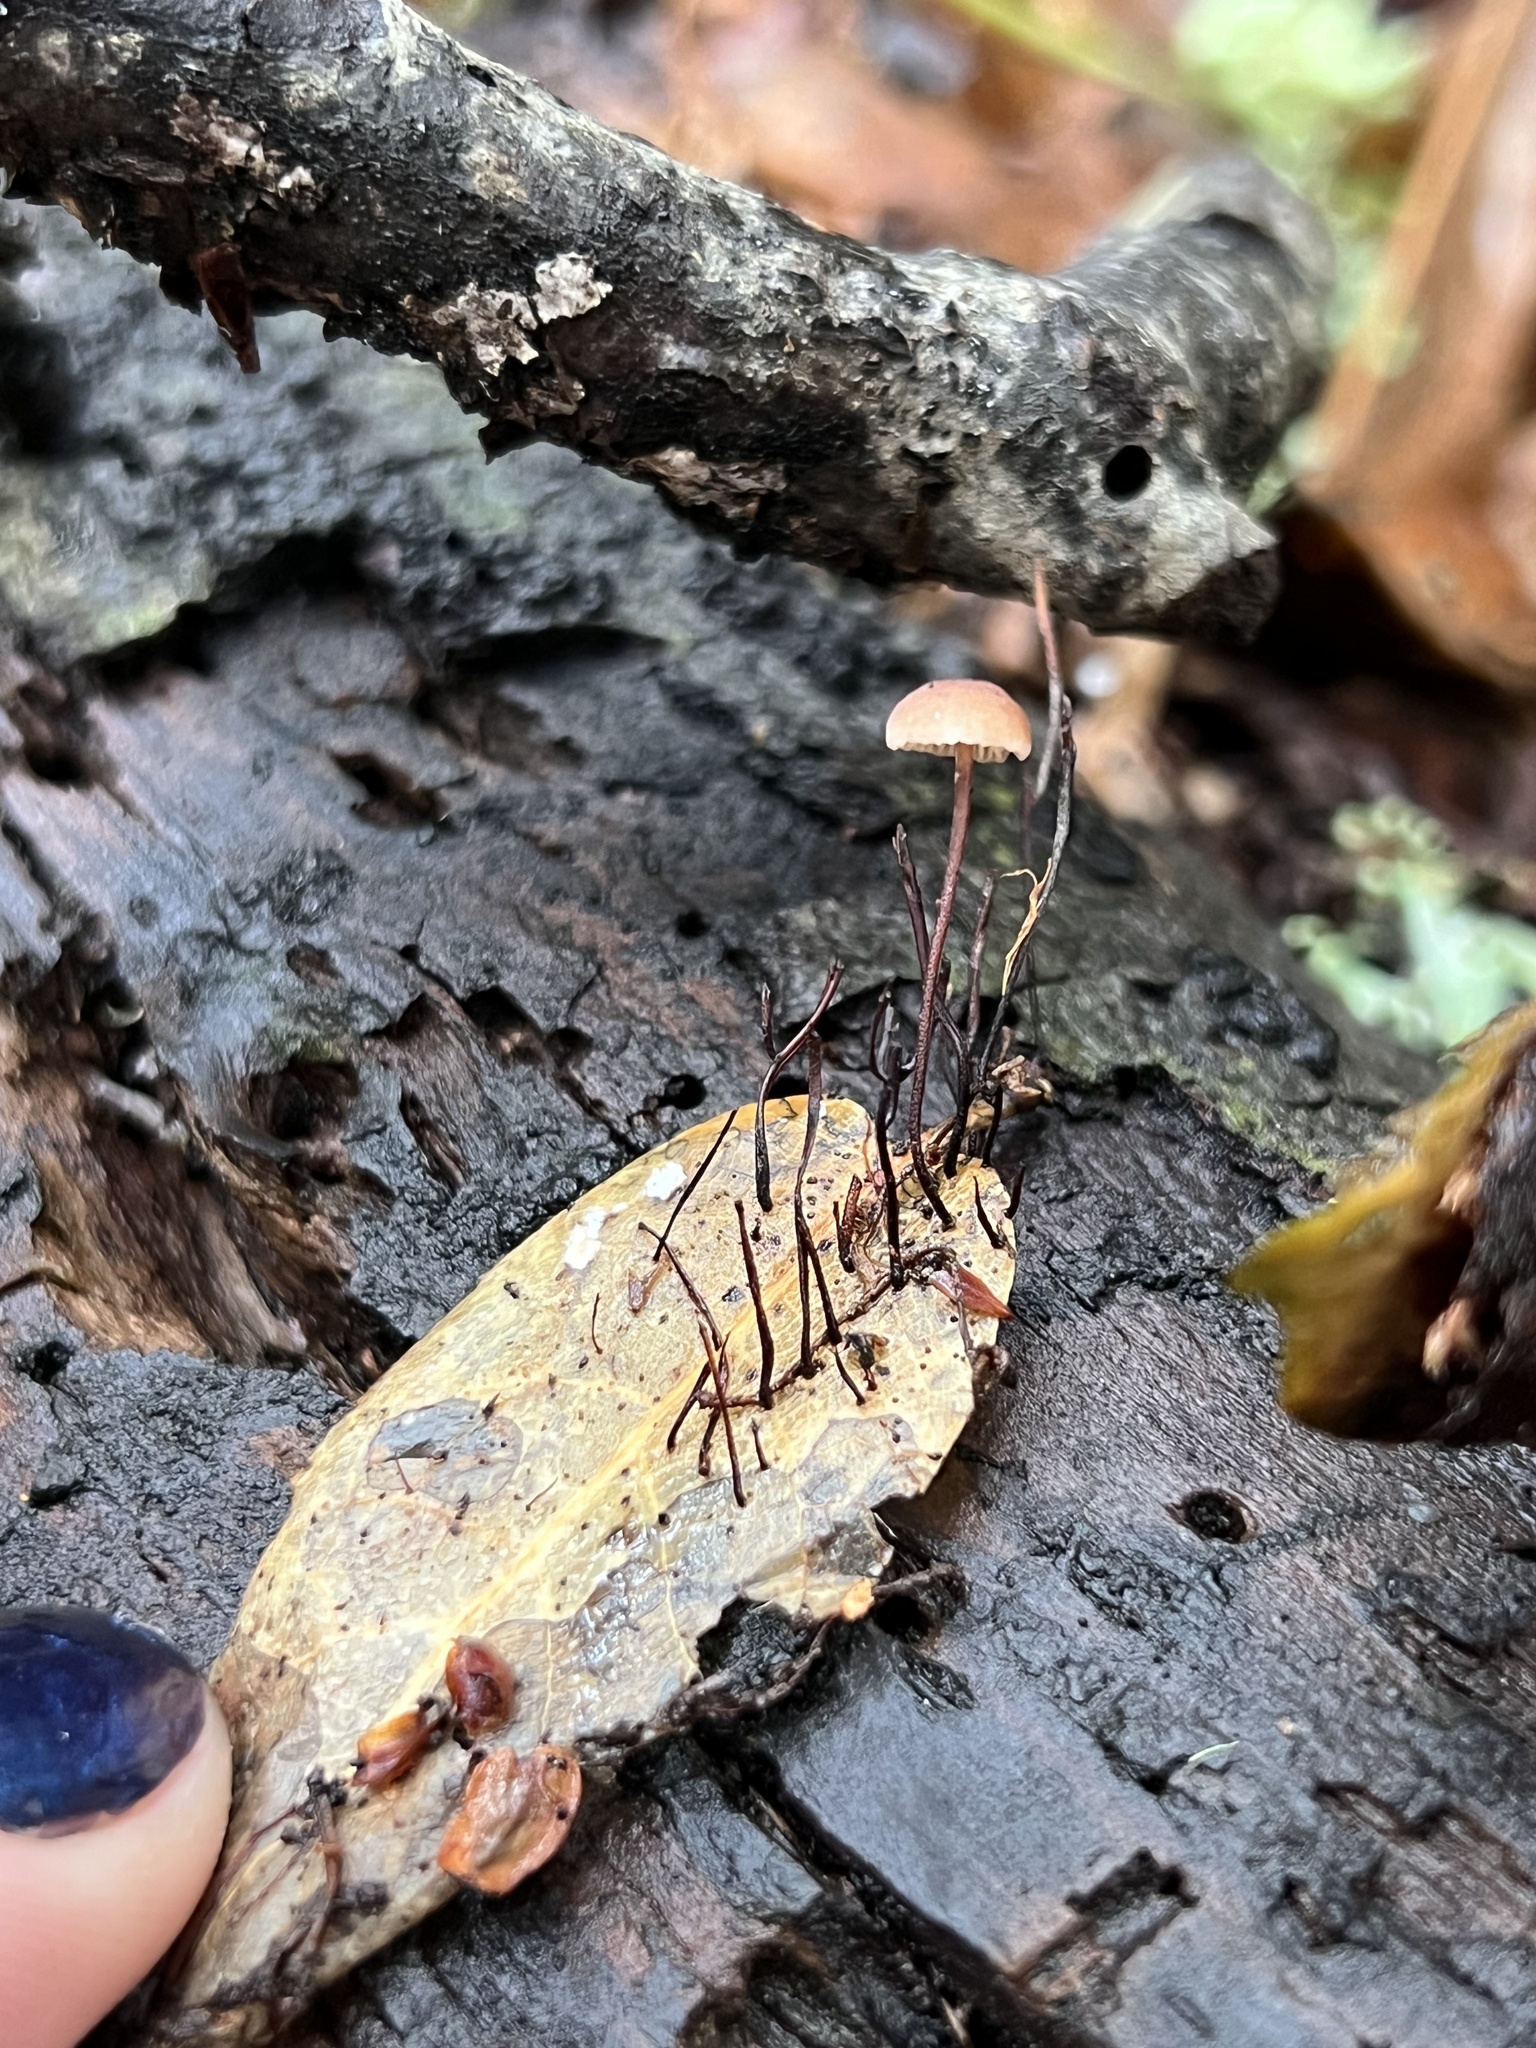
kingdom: Fungi
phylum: Basidiomycota
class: Agaricomycetes
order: Agaricales
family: Omphalotaceae
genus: Collybiopsis
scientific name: Collybiopsis quercophila
